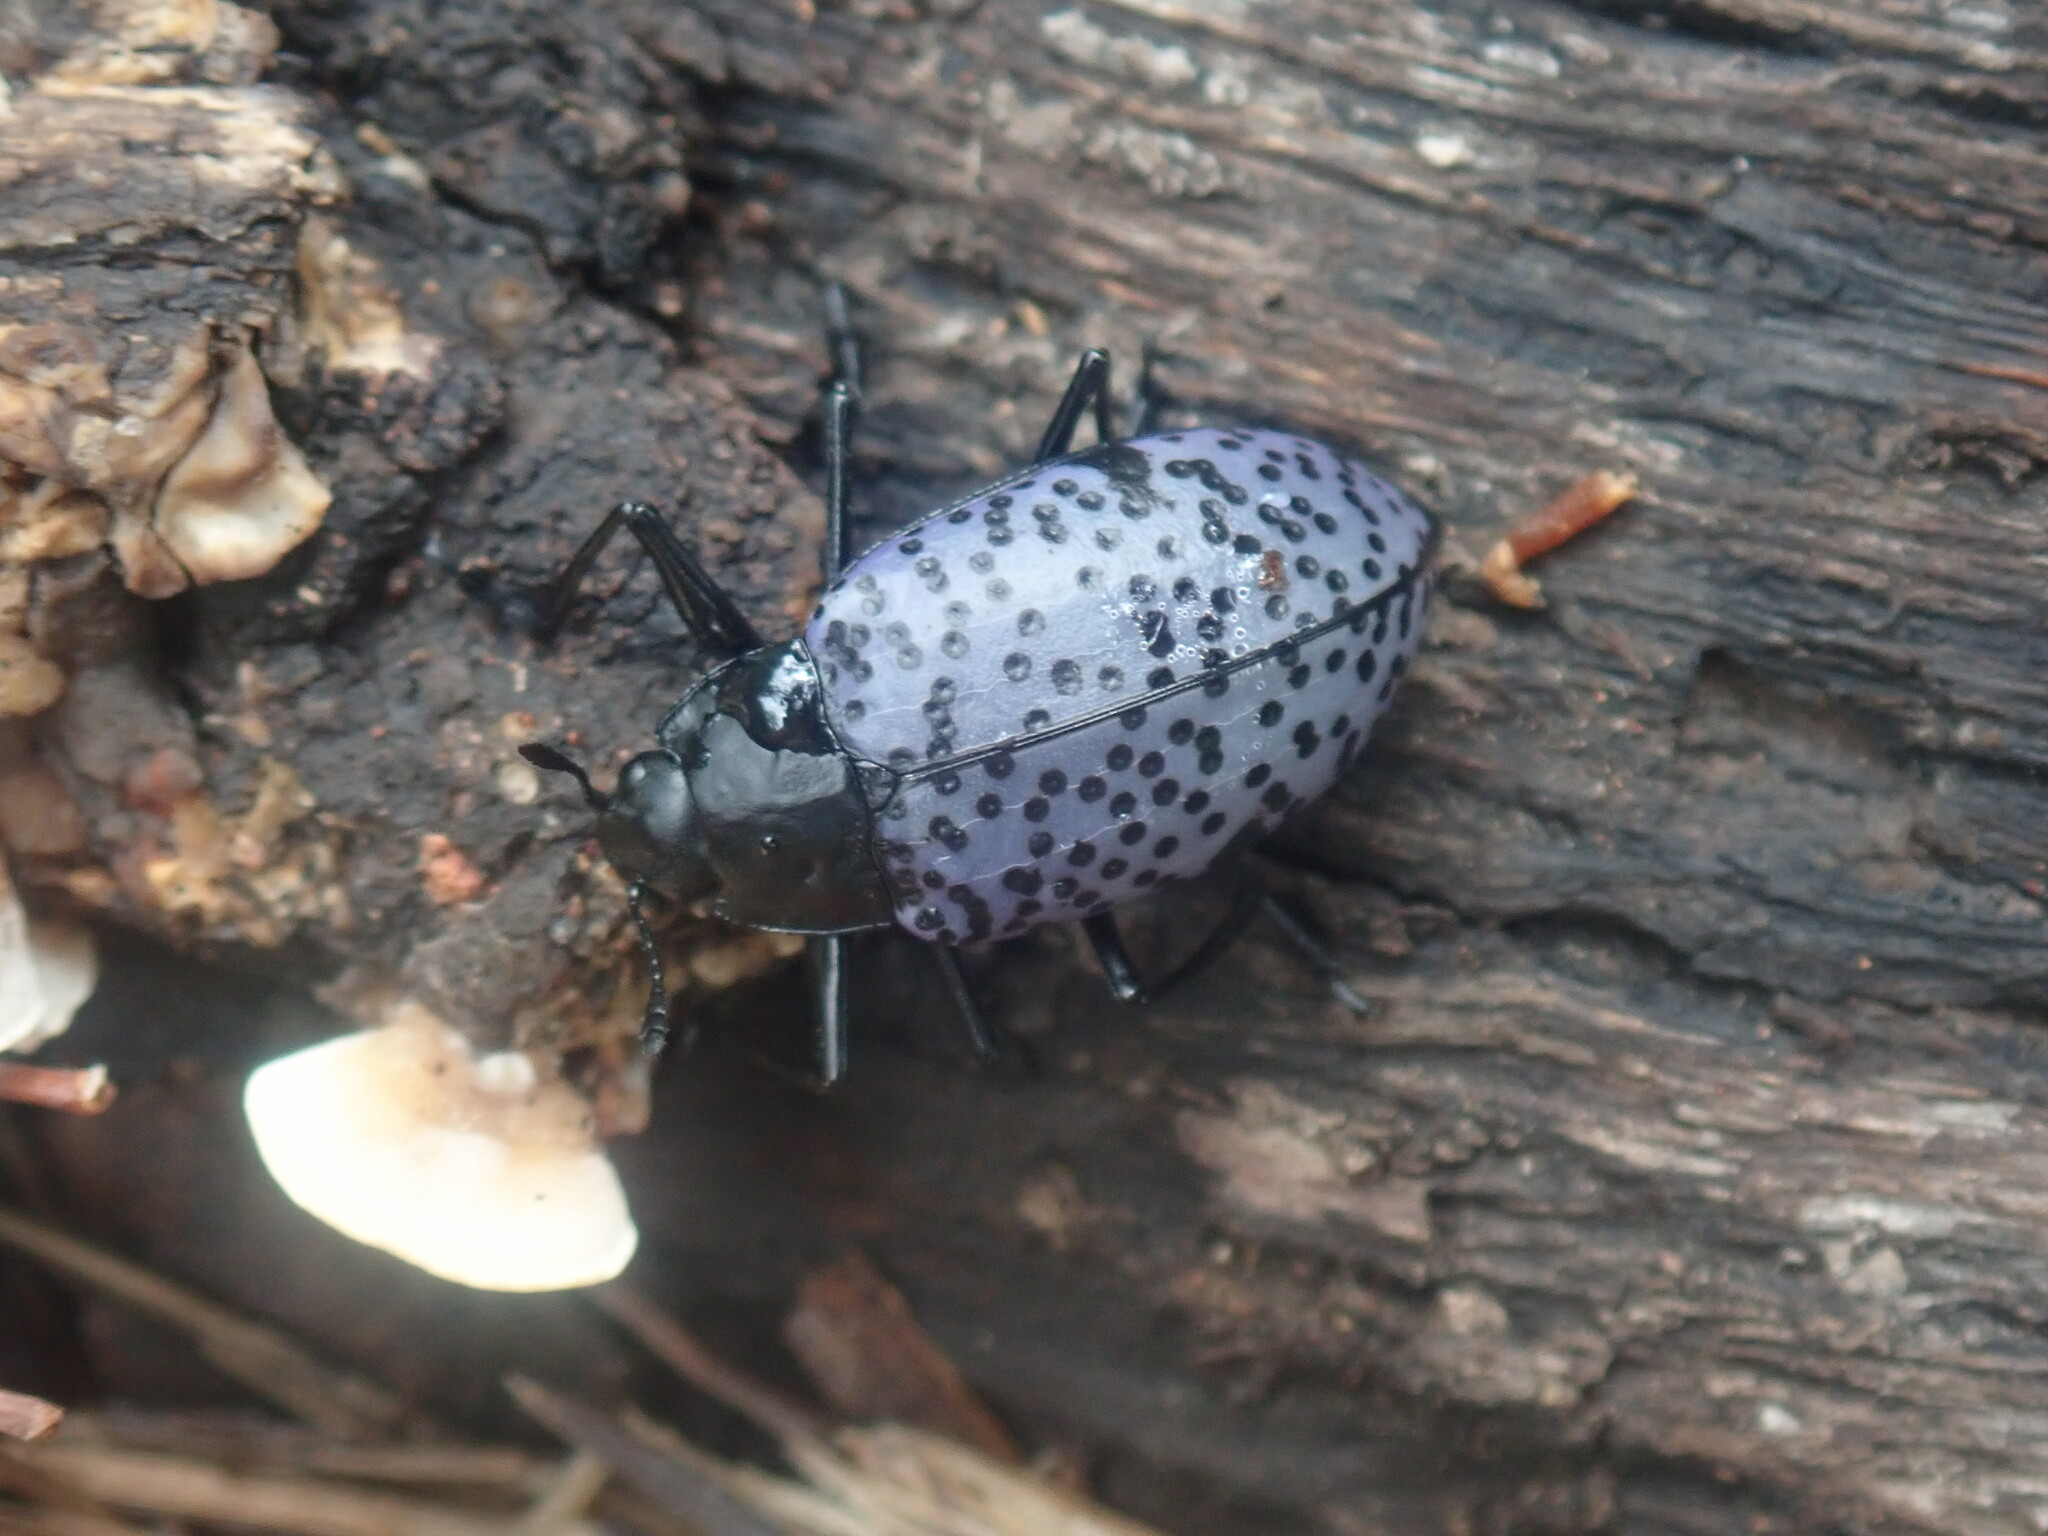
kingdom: Animalia
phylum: Arthropoda
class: Insecta
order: Coleoptera
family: Erotylidae
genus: Gibbifer
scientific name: Gibbifer californicus
